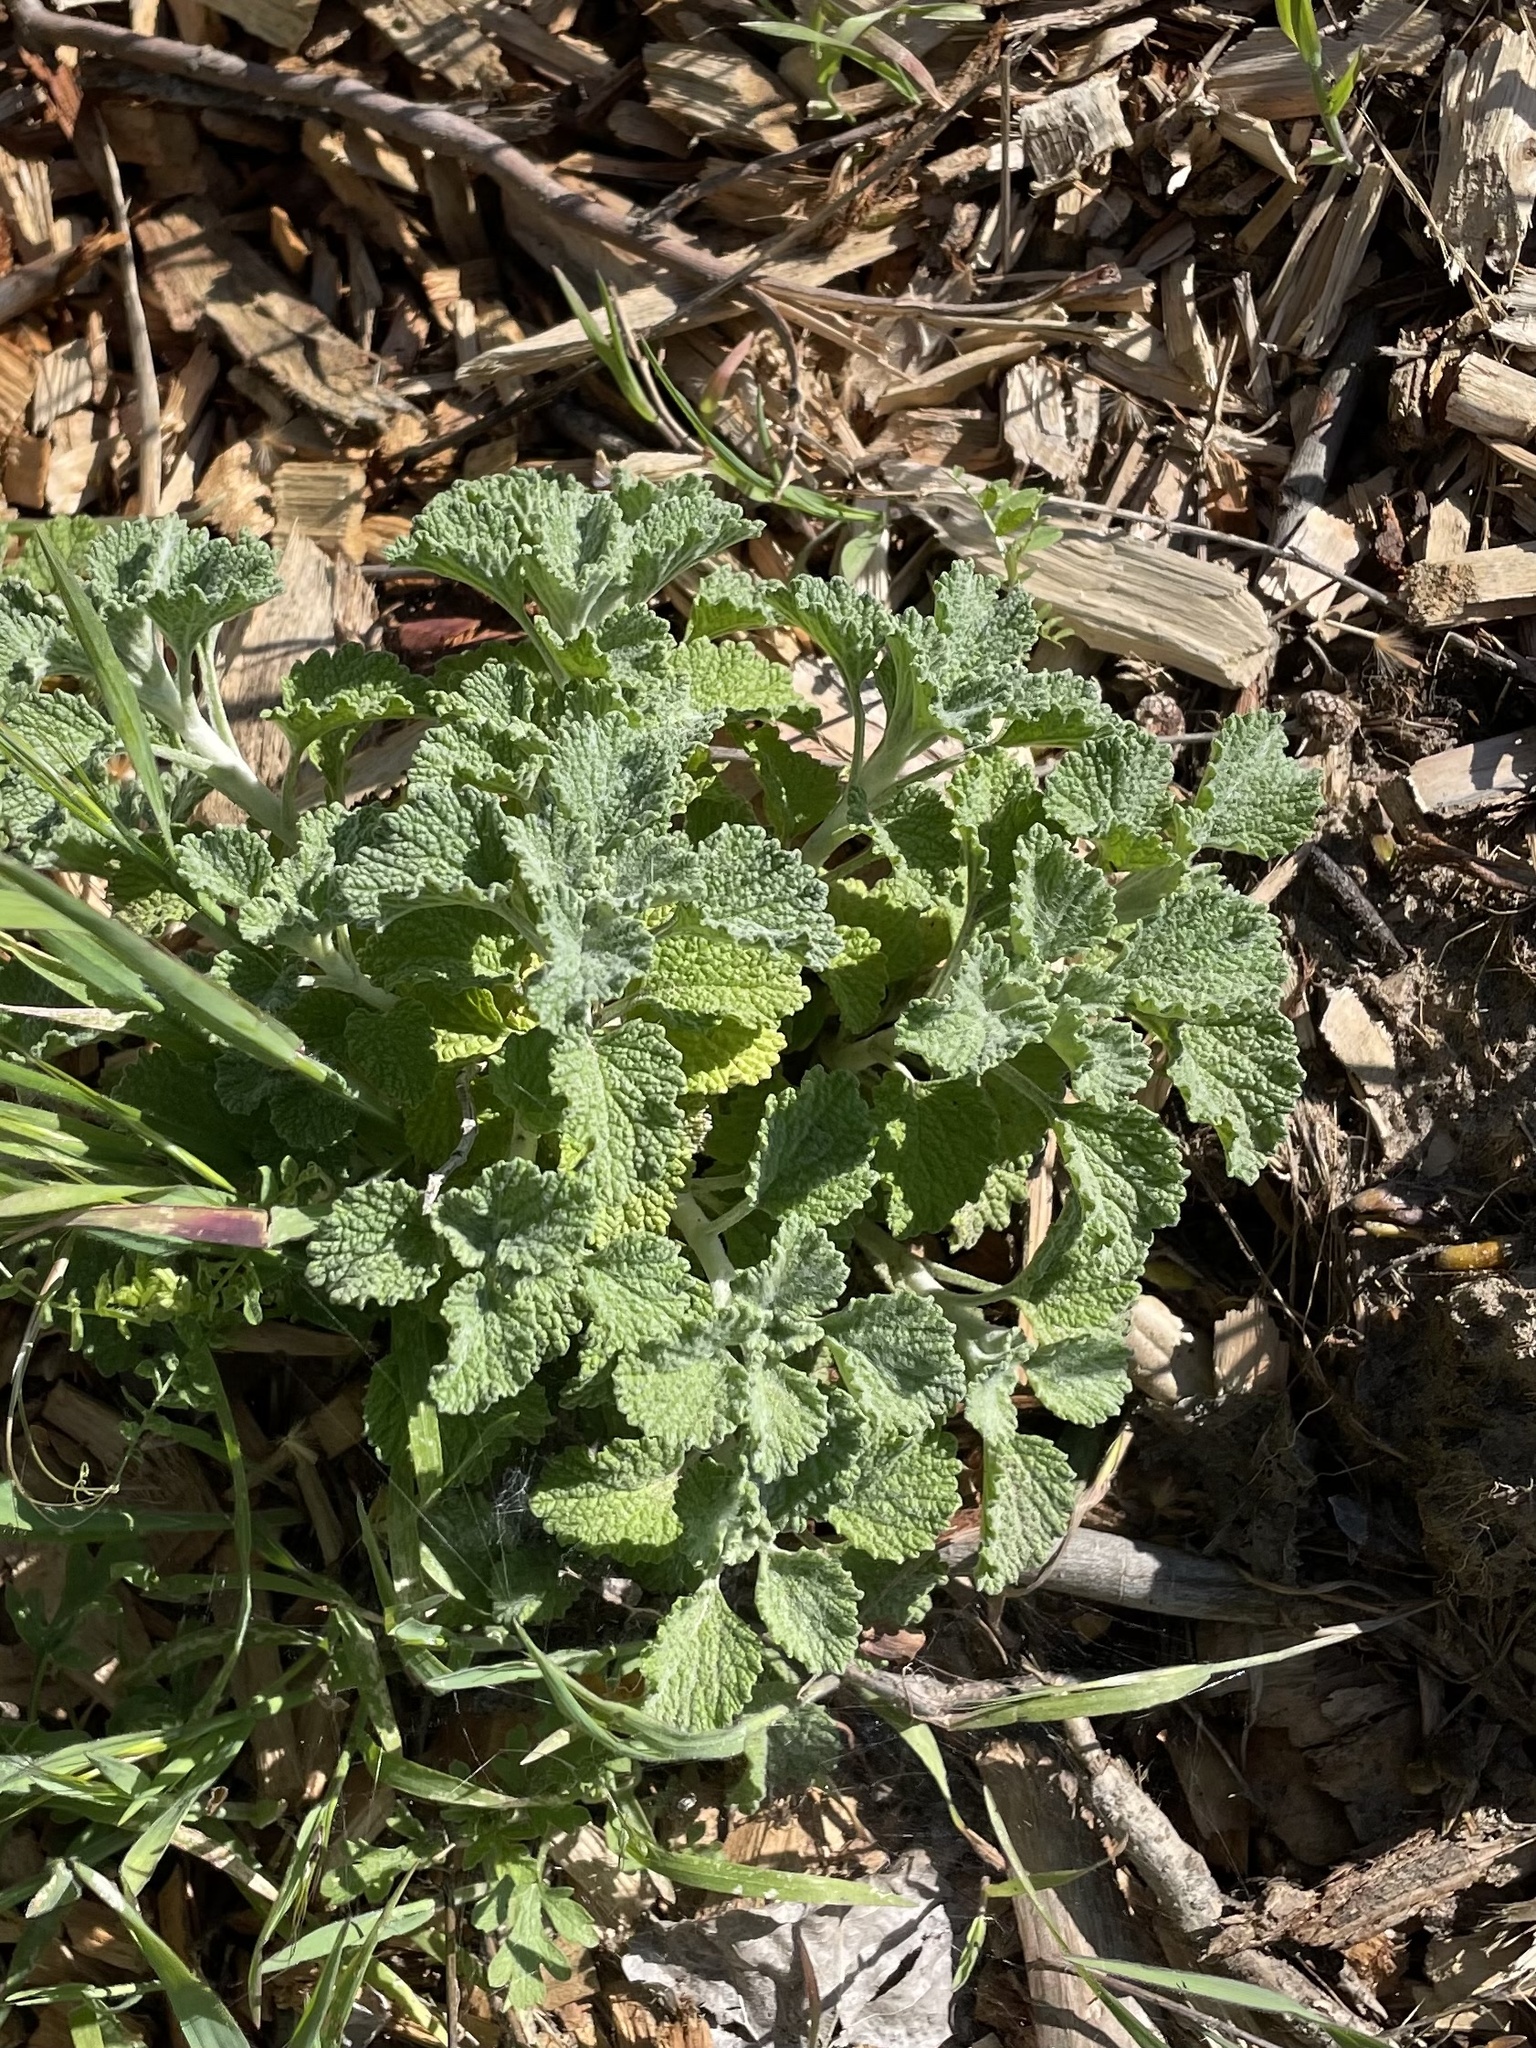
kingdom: Plantae
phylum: Tracheophyta
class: Magnoliopsida
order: Lamiales
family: Lamiaceae
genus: Marrubium
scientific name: Marrubium vulgare
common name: Horehound
